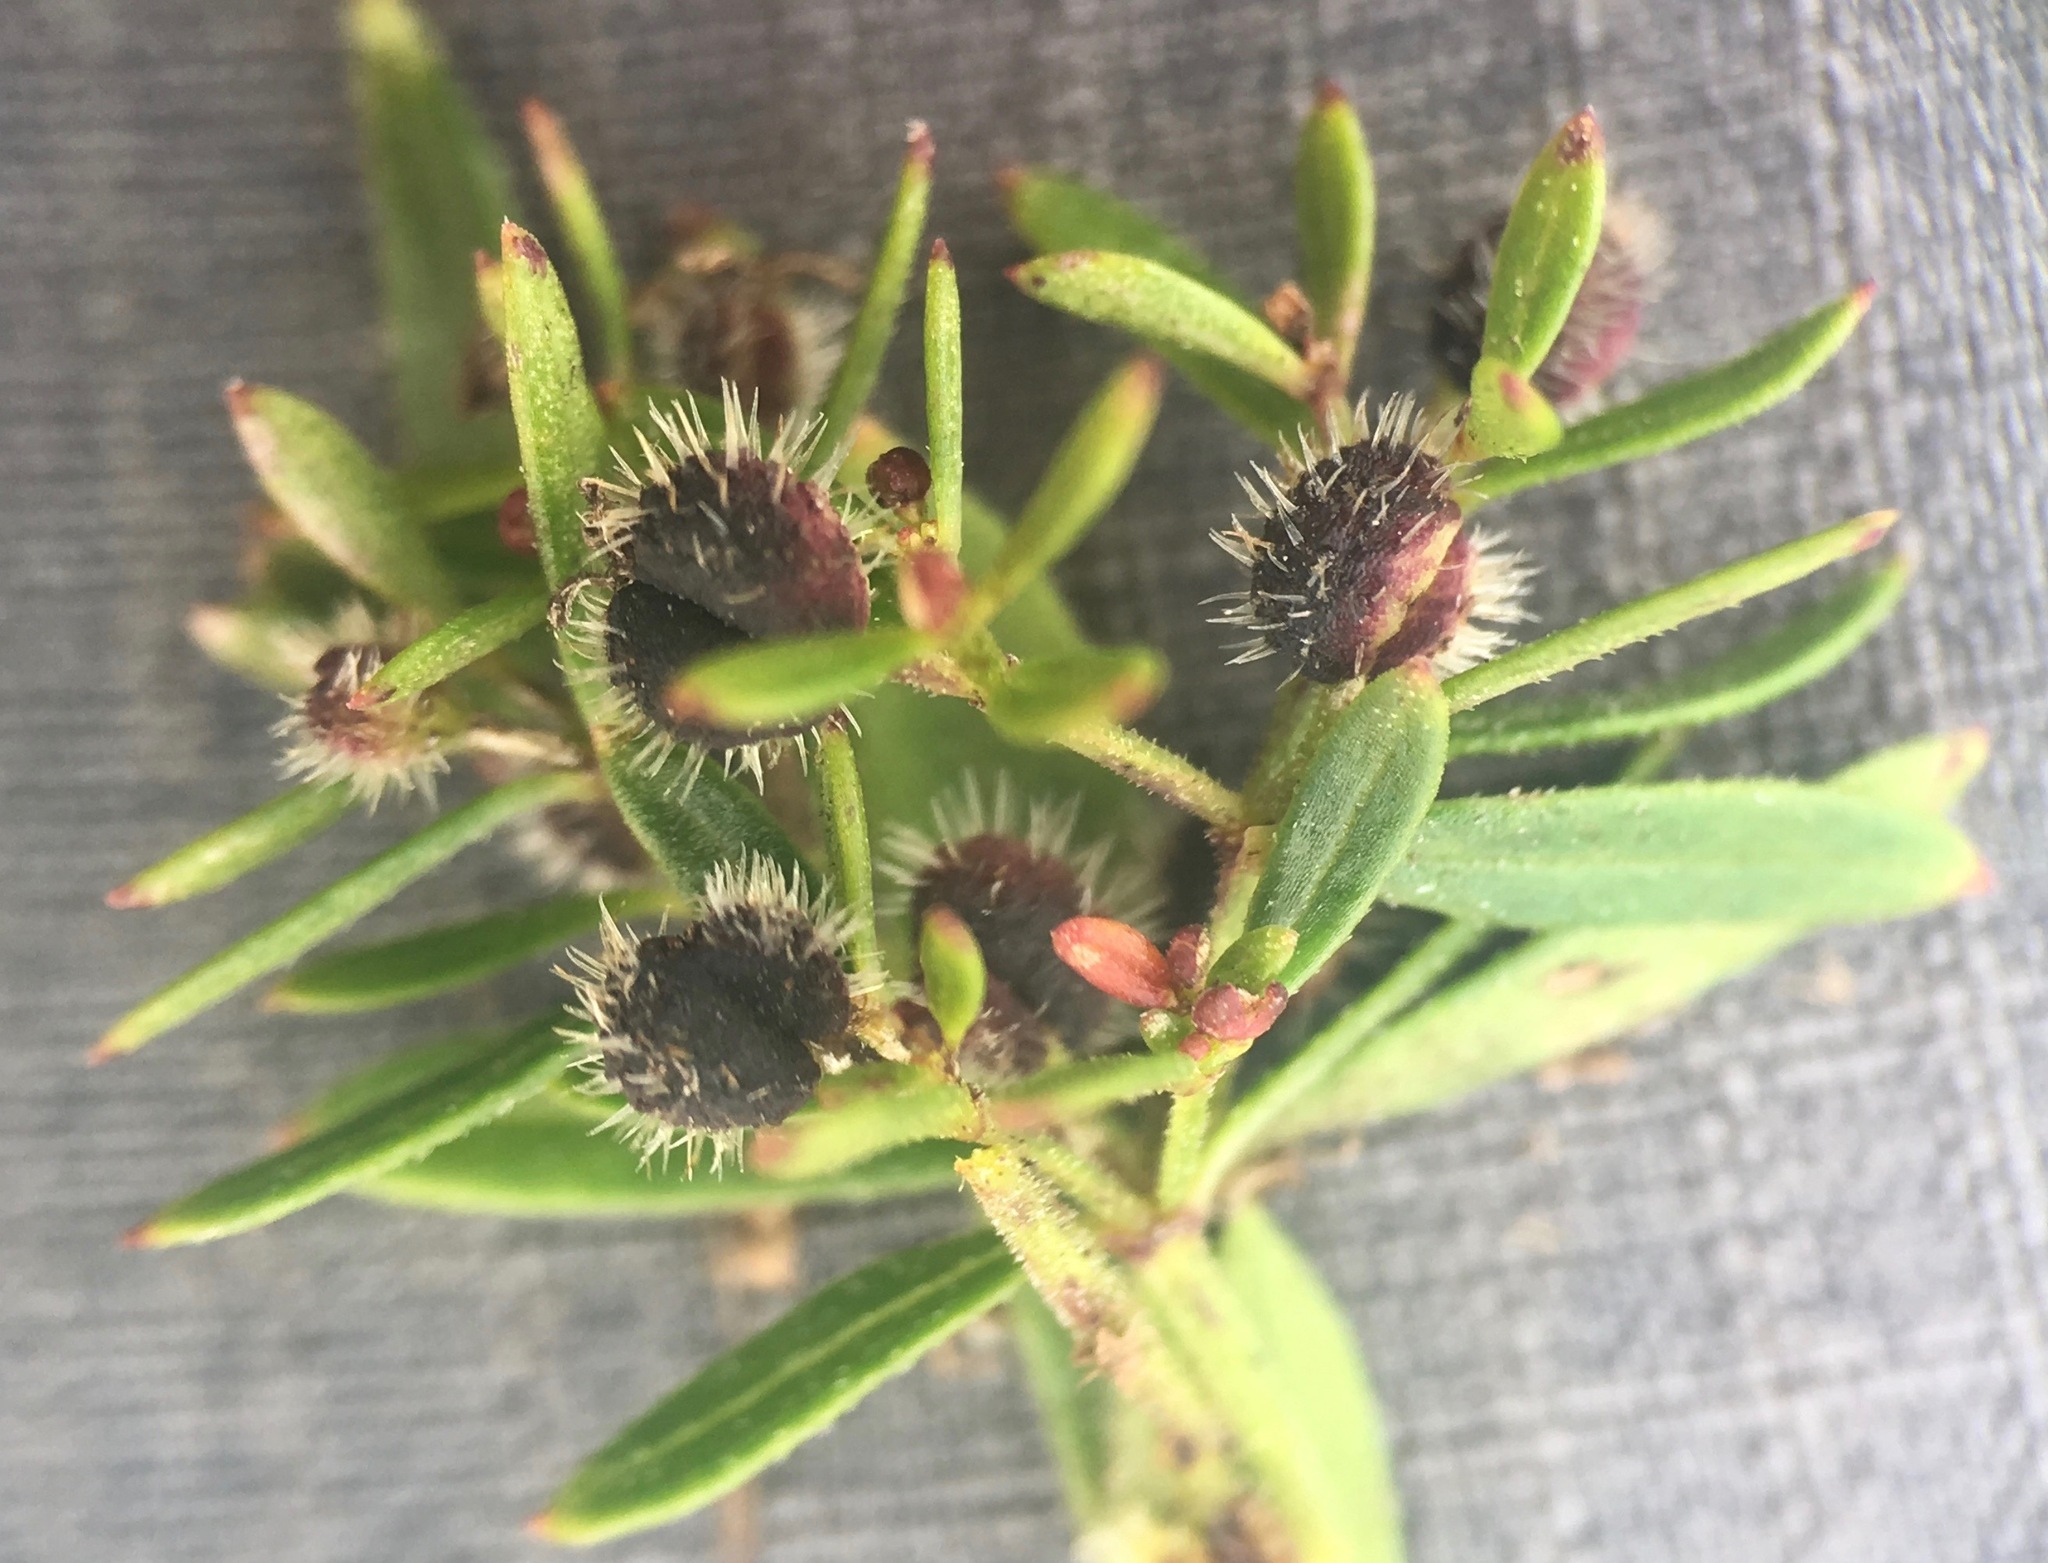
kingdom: Plantae
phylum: Tracheophyta
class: Magnoliopsida
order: Gentianales
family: Rubiaceae
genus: Galium
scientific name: Galium catalinense
